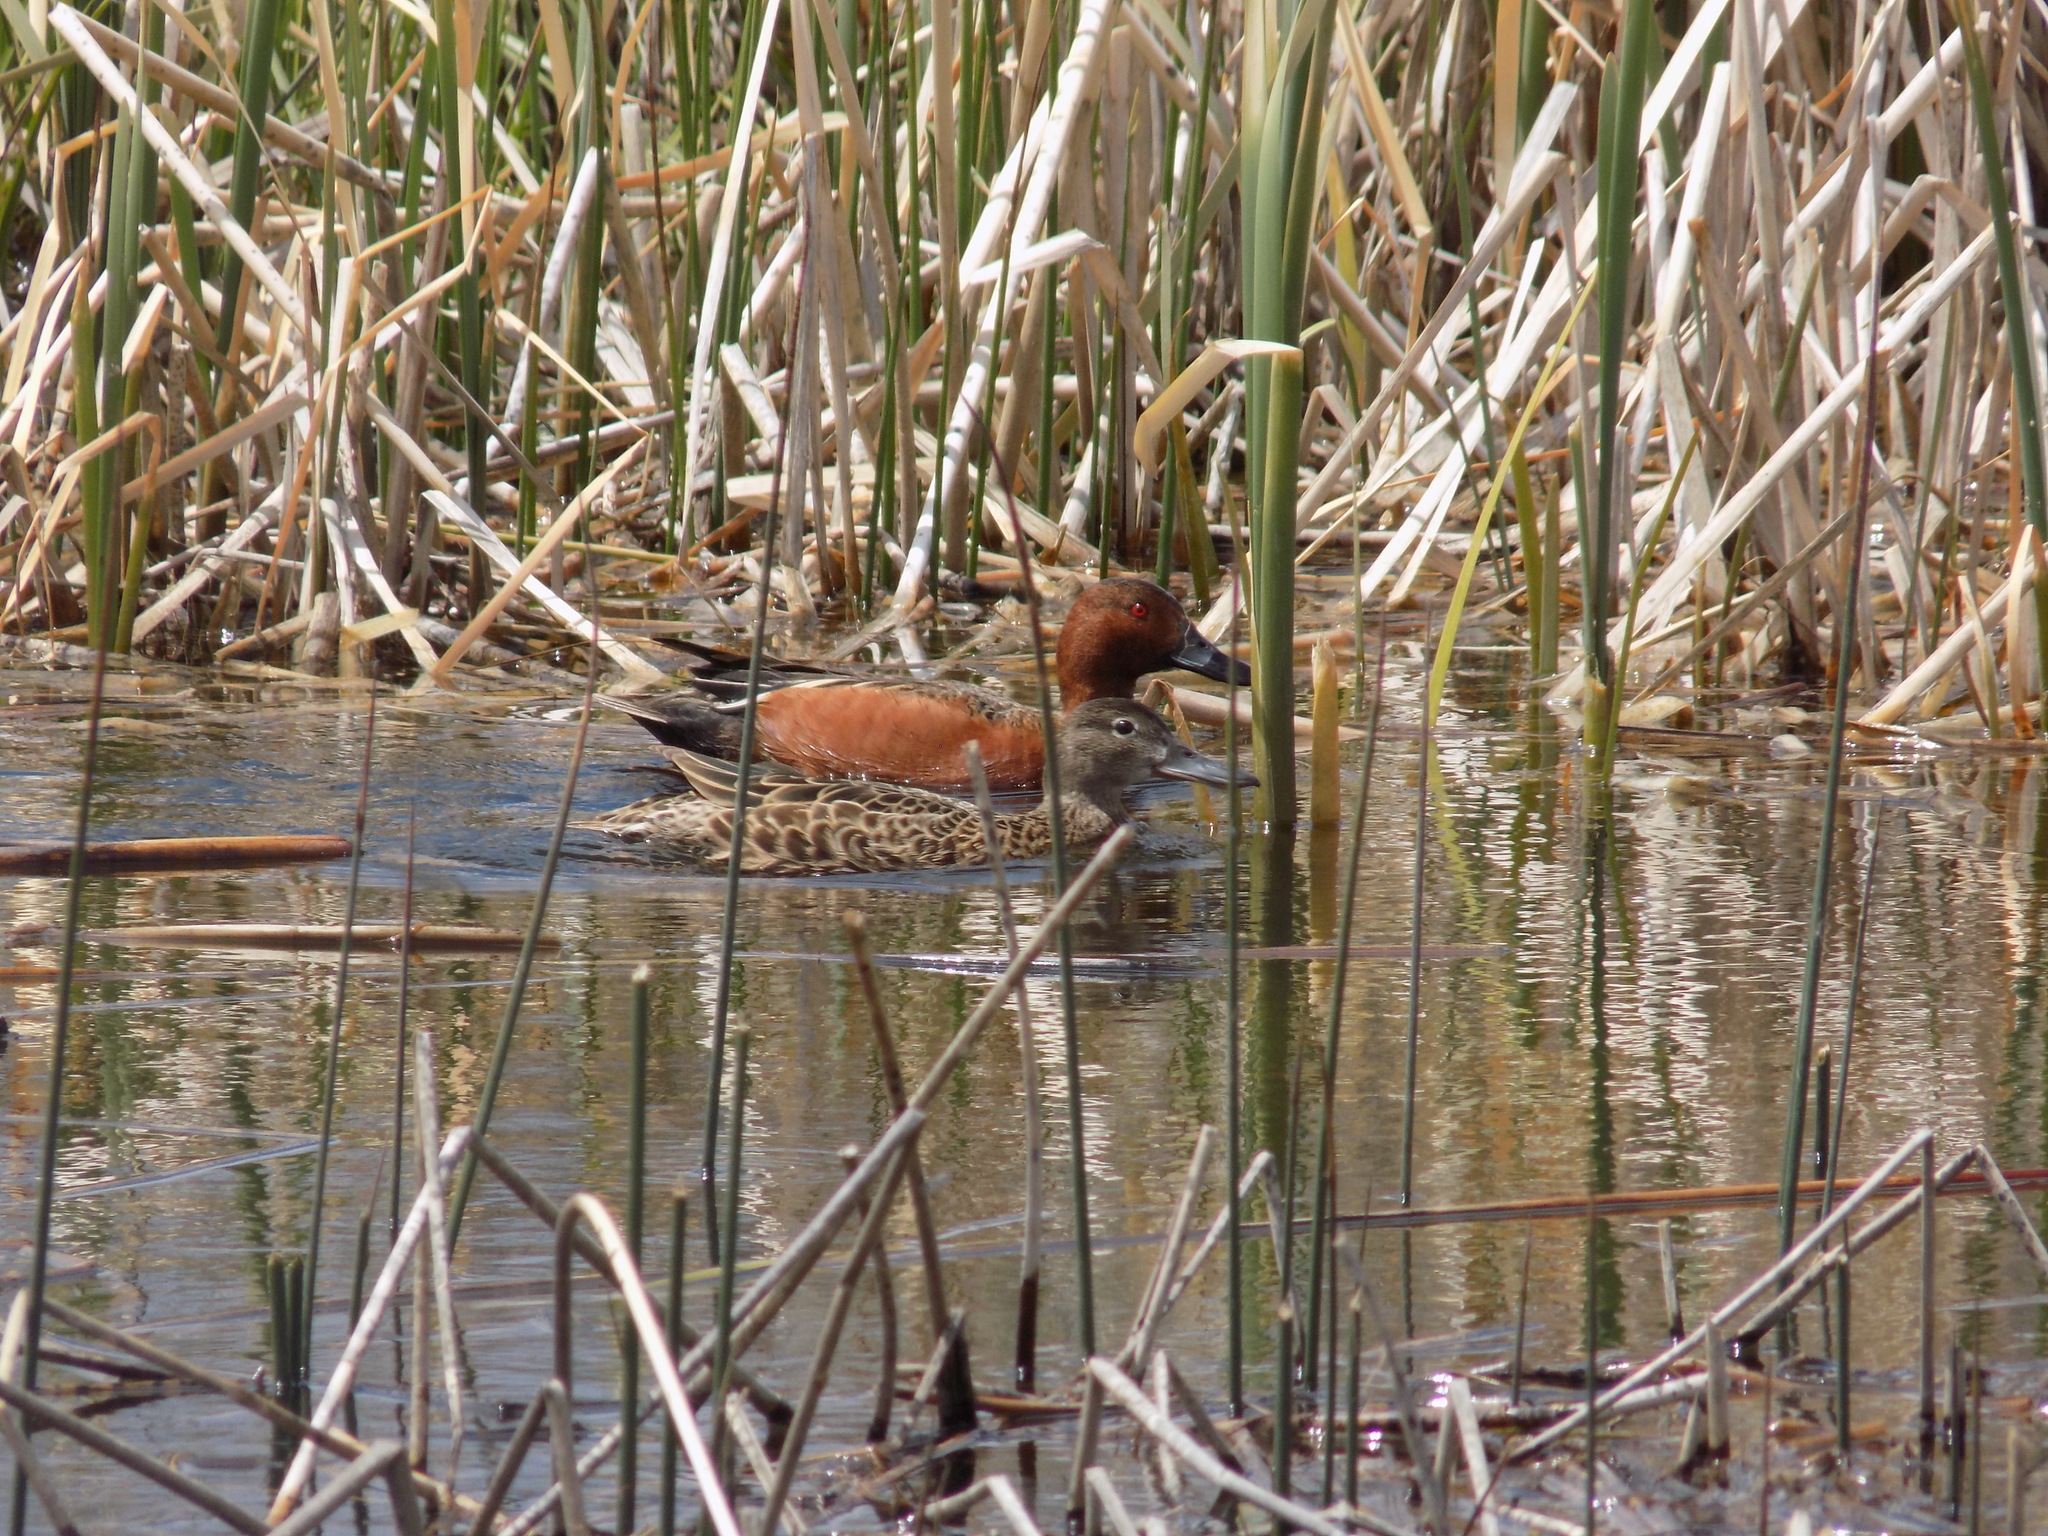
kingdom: Animalia
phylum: Chordata
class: Aves
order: Anseriformes
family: Anatidae
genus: Spatula
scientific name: Spatula cyanoptera
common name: Cinnamon teal
